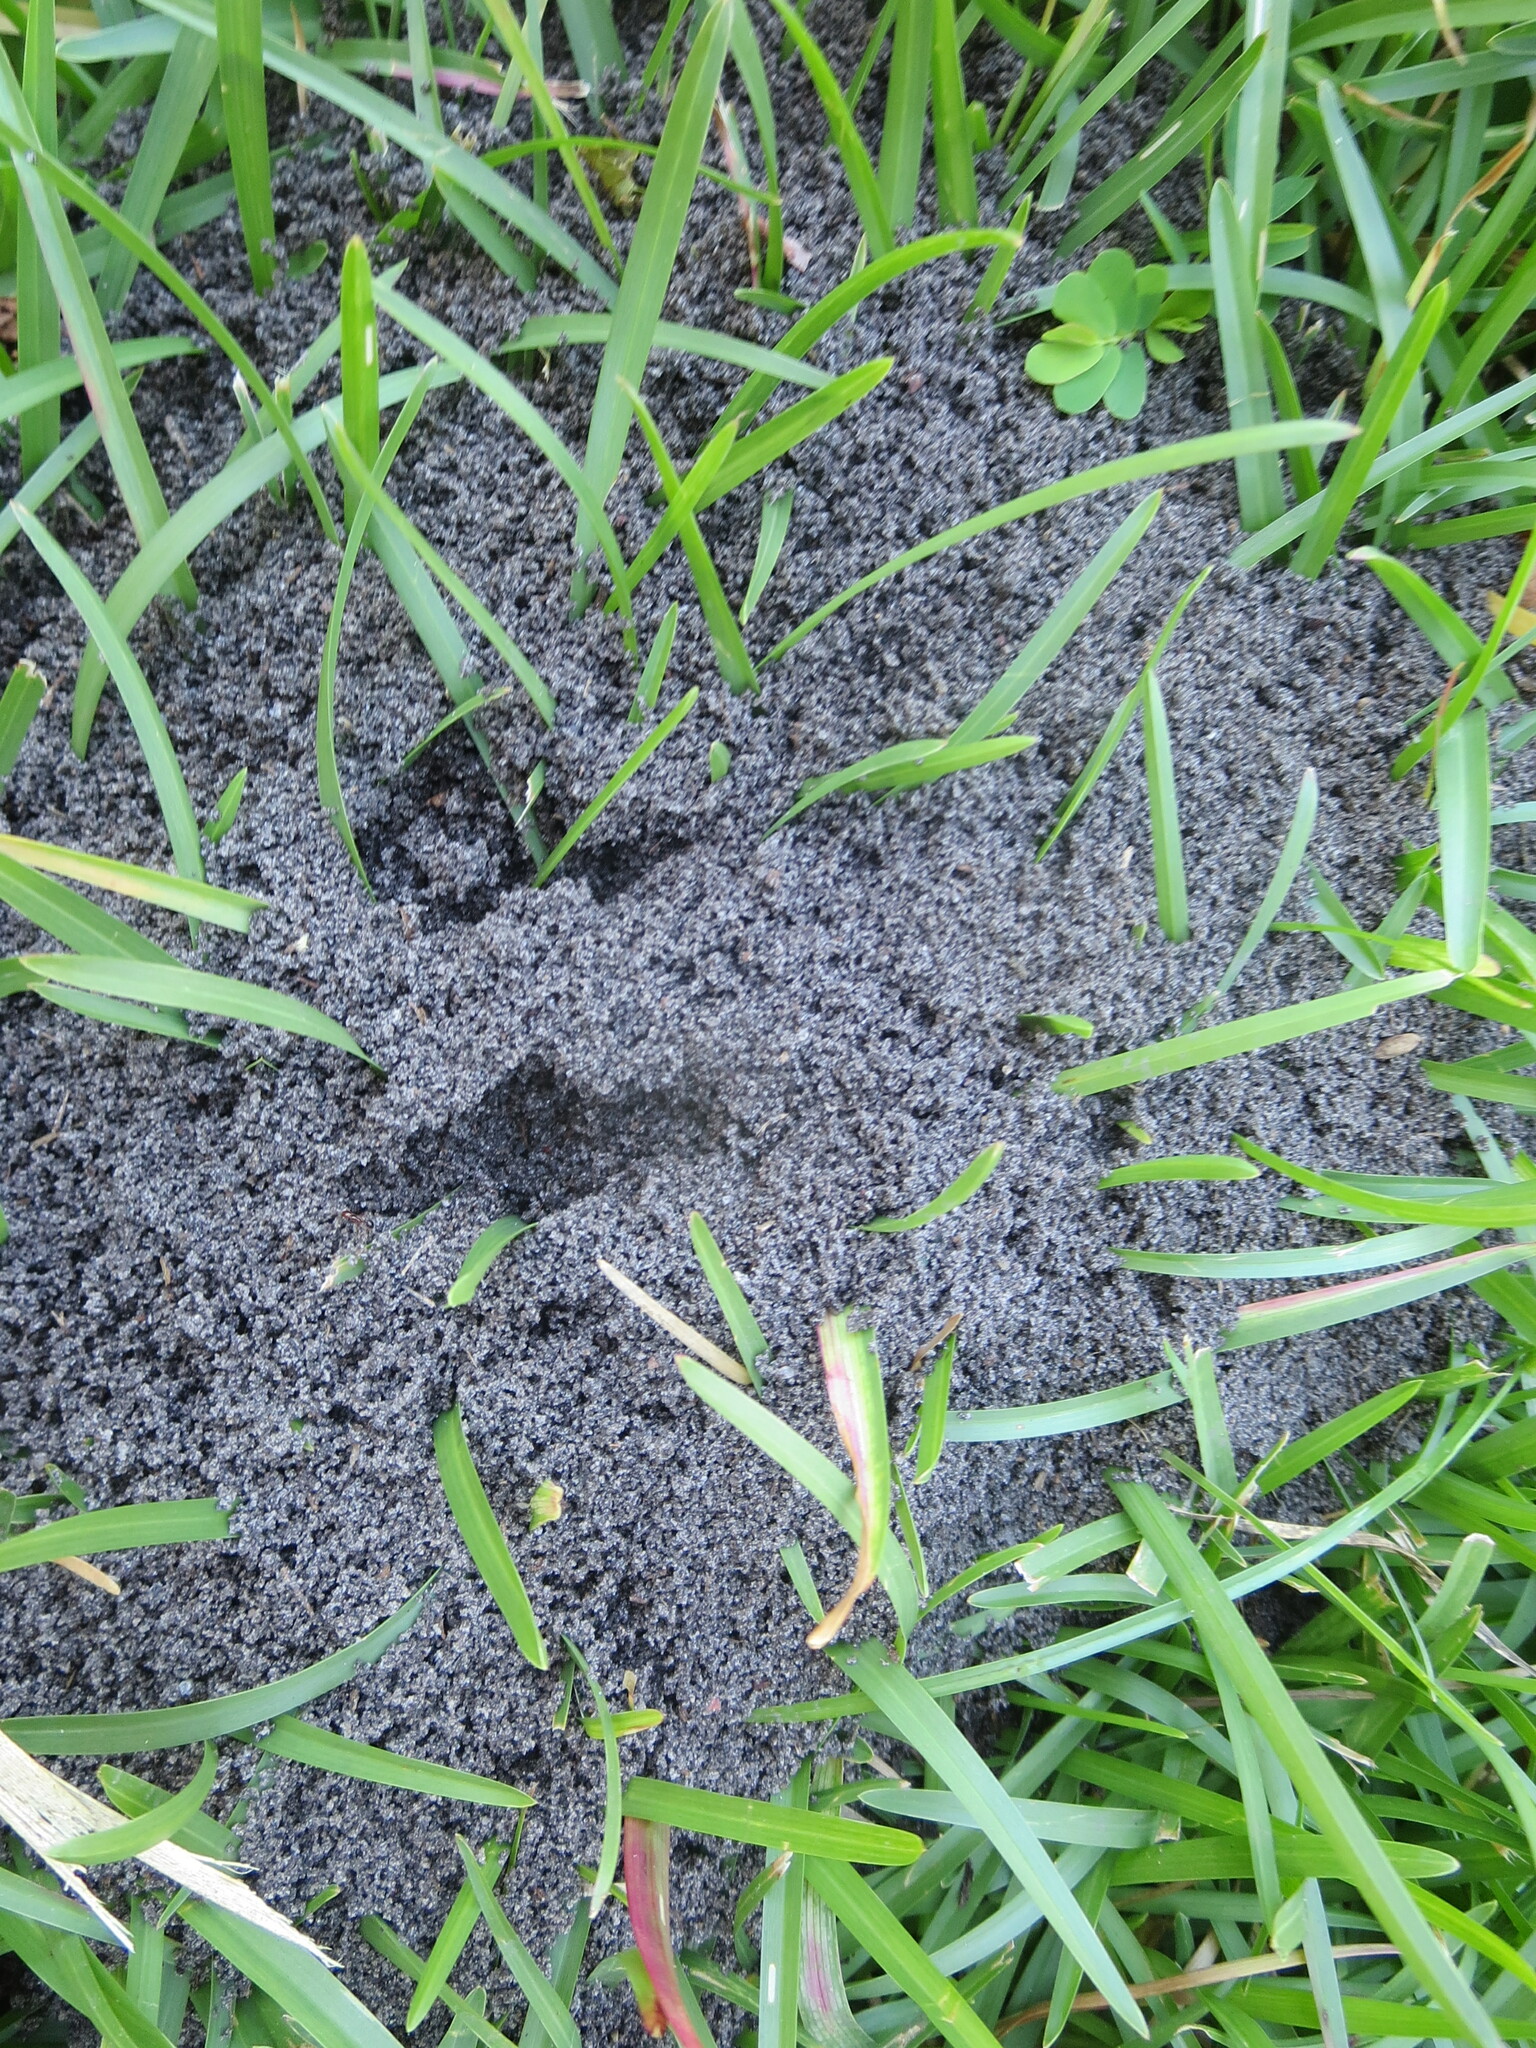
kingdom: Animalia
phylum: Arthropoda
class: Insecta
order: Hymenoptera
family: Formicidae
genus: Solenopsis
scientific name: Solenopsis invicta
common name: Red imported fire ant
